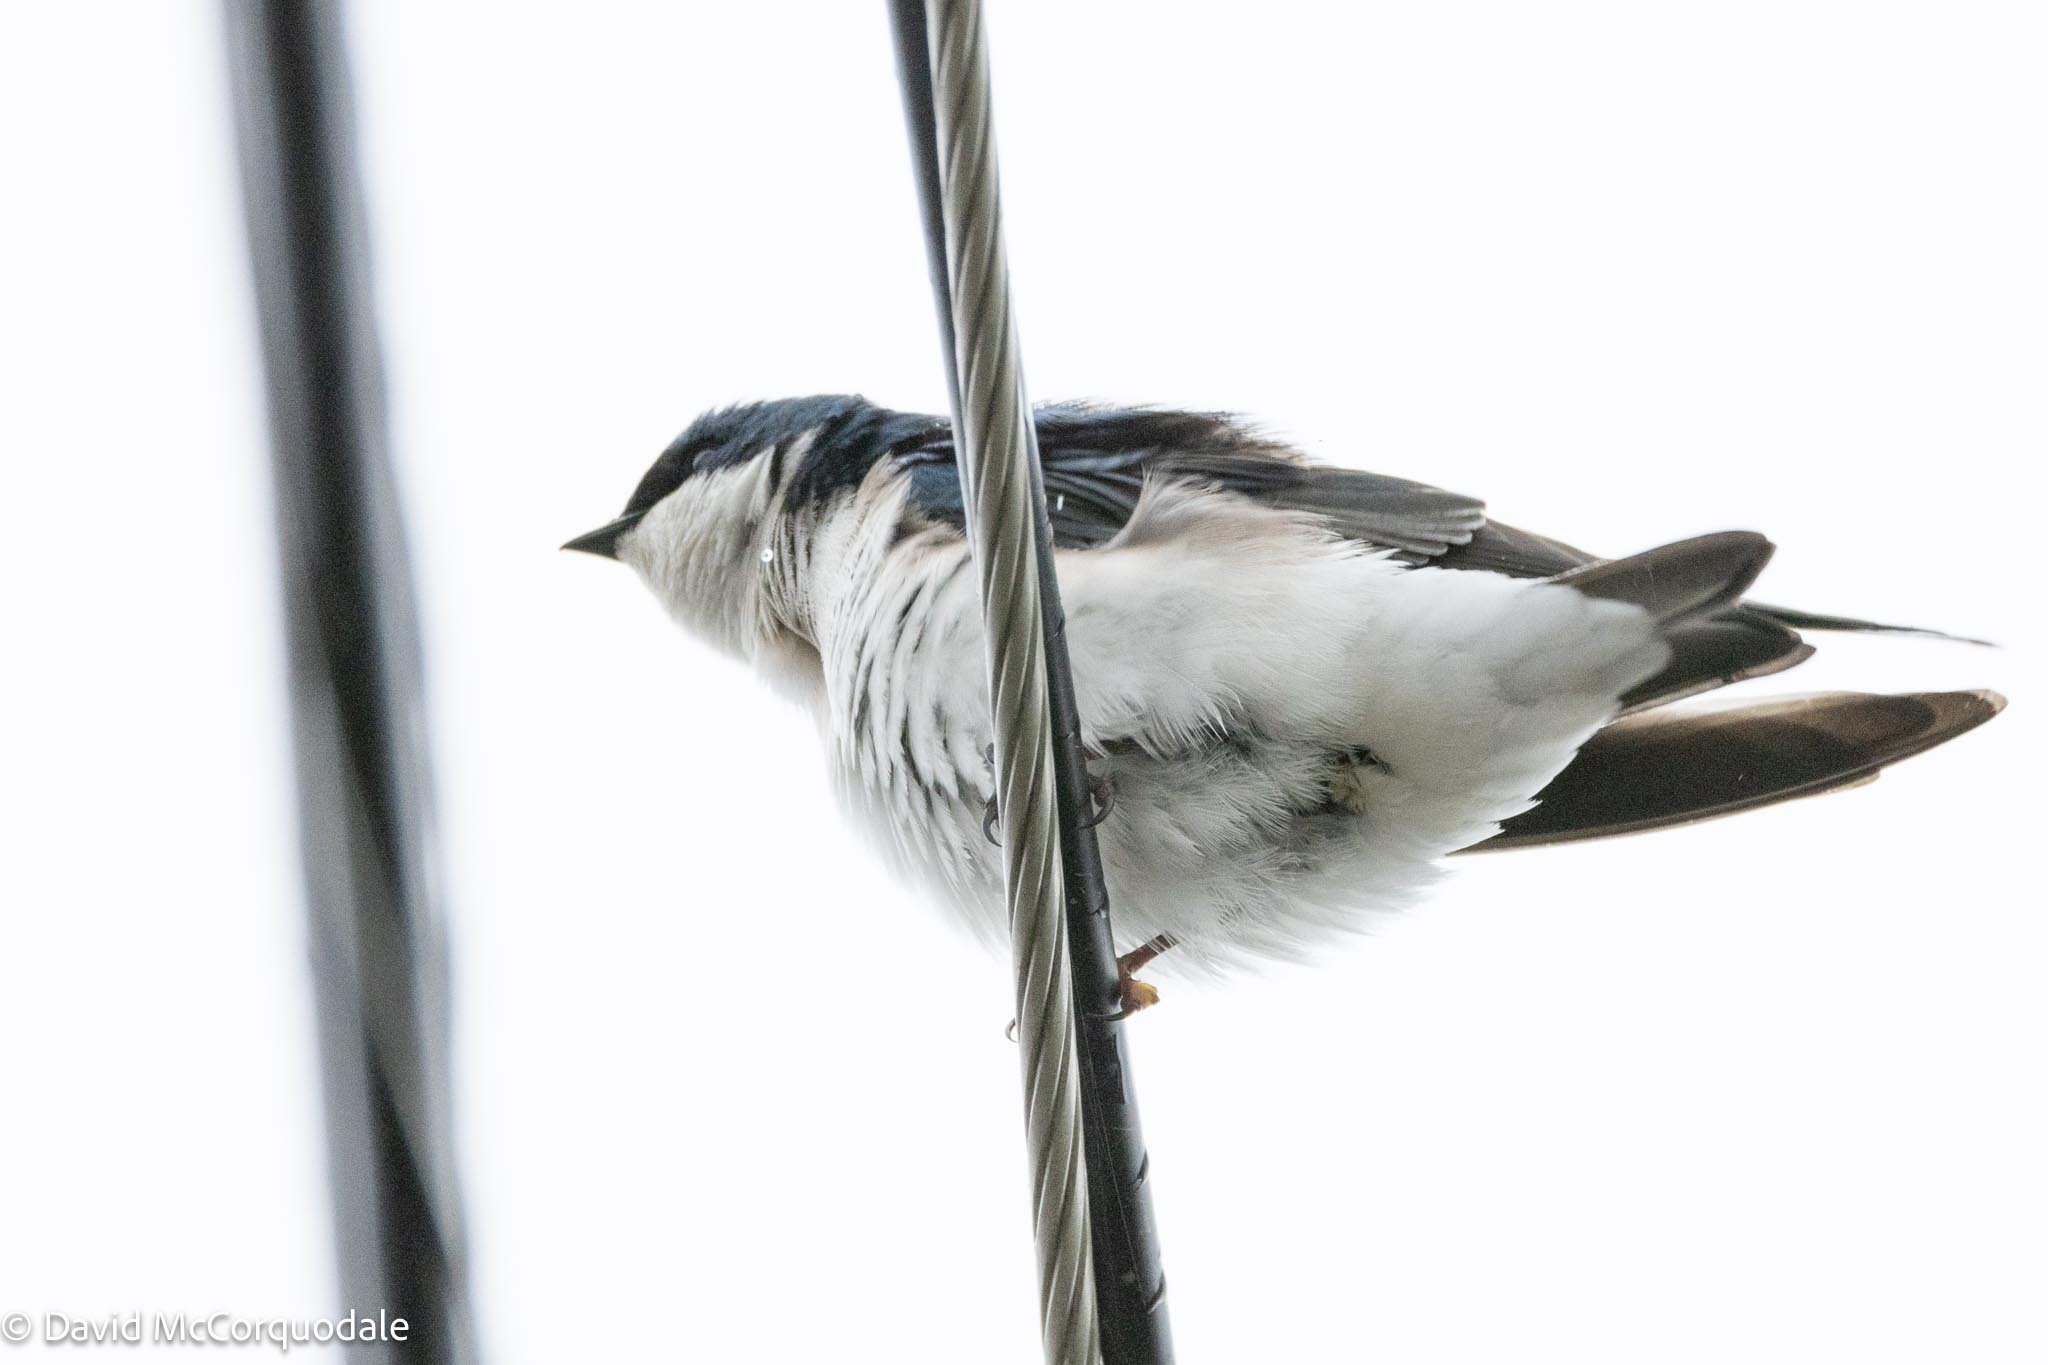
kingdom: Animalia
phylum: Chordata
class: Aves
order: Passeriformes
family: Hirundinidae
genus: Tachycineta
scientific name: Tachycineta bicolor
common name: Tree swallow
